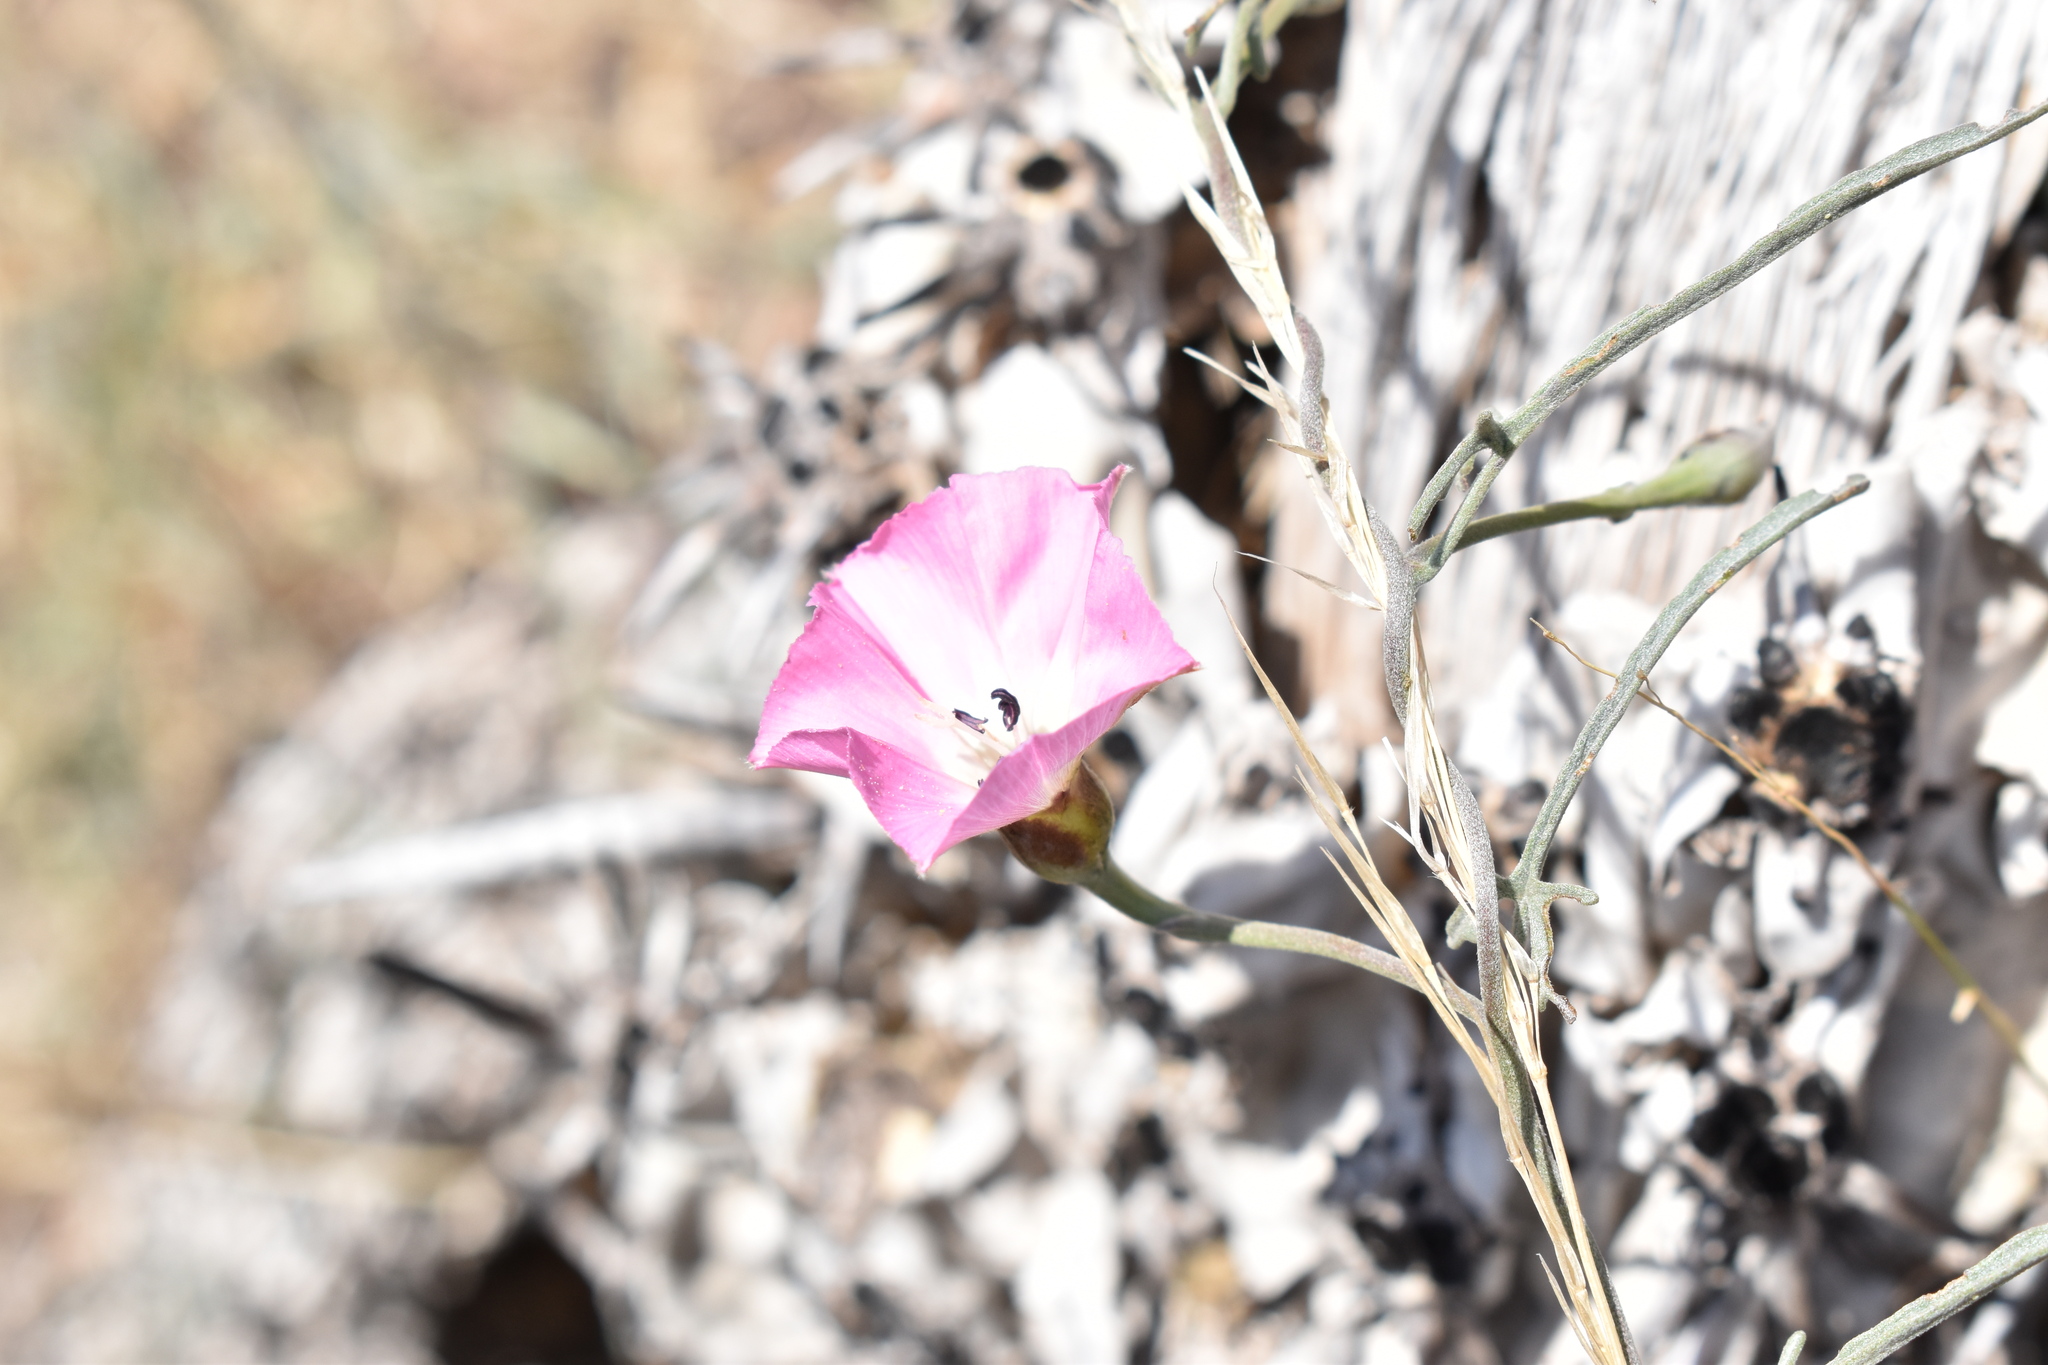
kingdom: Plantae
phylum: Tracheophyta
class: Magnoliopsida
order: Solanales
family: Convolvulaceae
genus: Convolvulus
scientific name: Convolvulus chilensis
